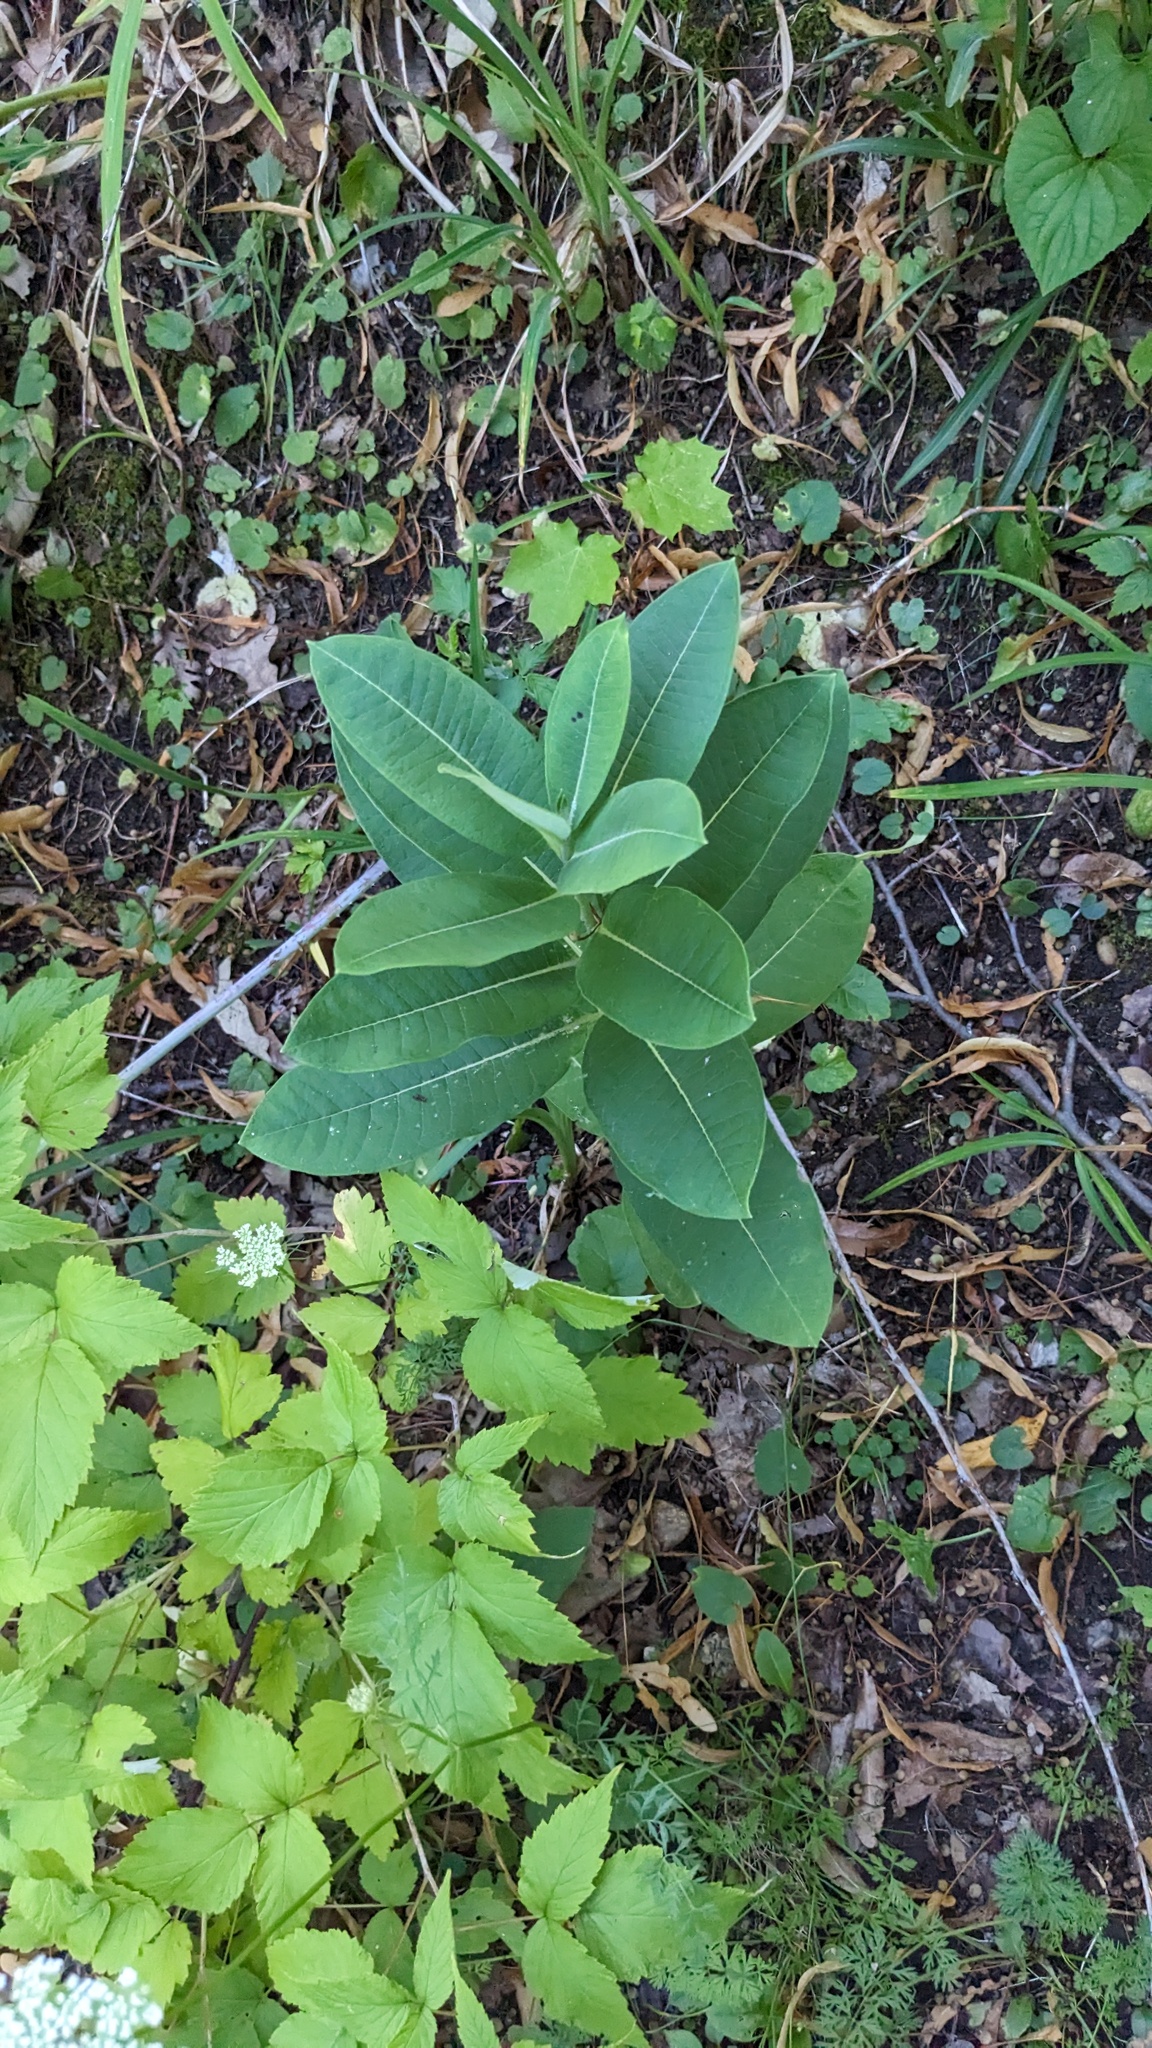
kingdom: Plantae
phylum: Tracheophyta
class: Magnoliopsida
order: Gentianales
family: Apocynaceae
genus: Asclepias
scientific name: Asclepias syriaca
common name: Common milkweed
